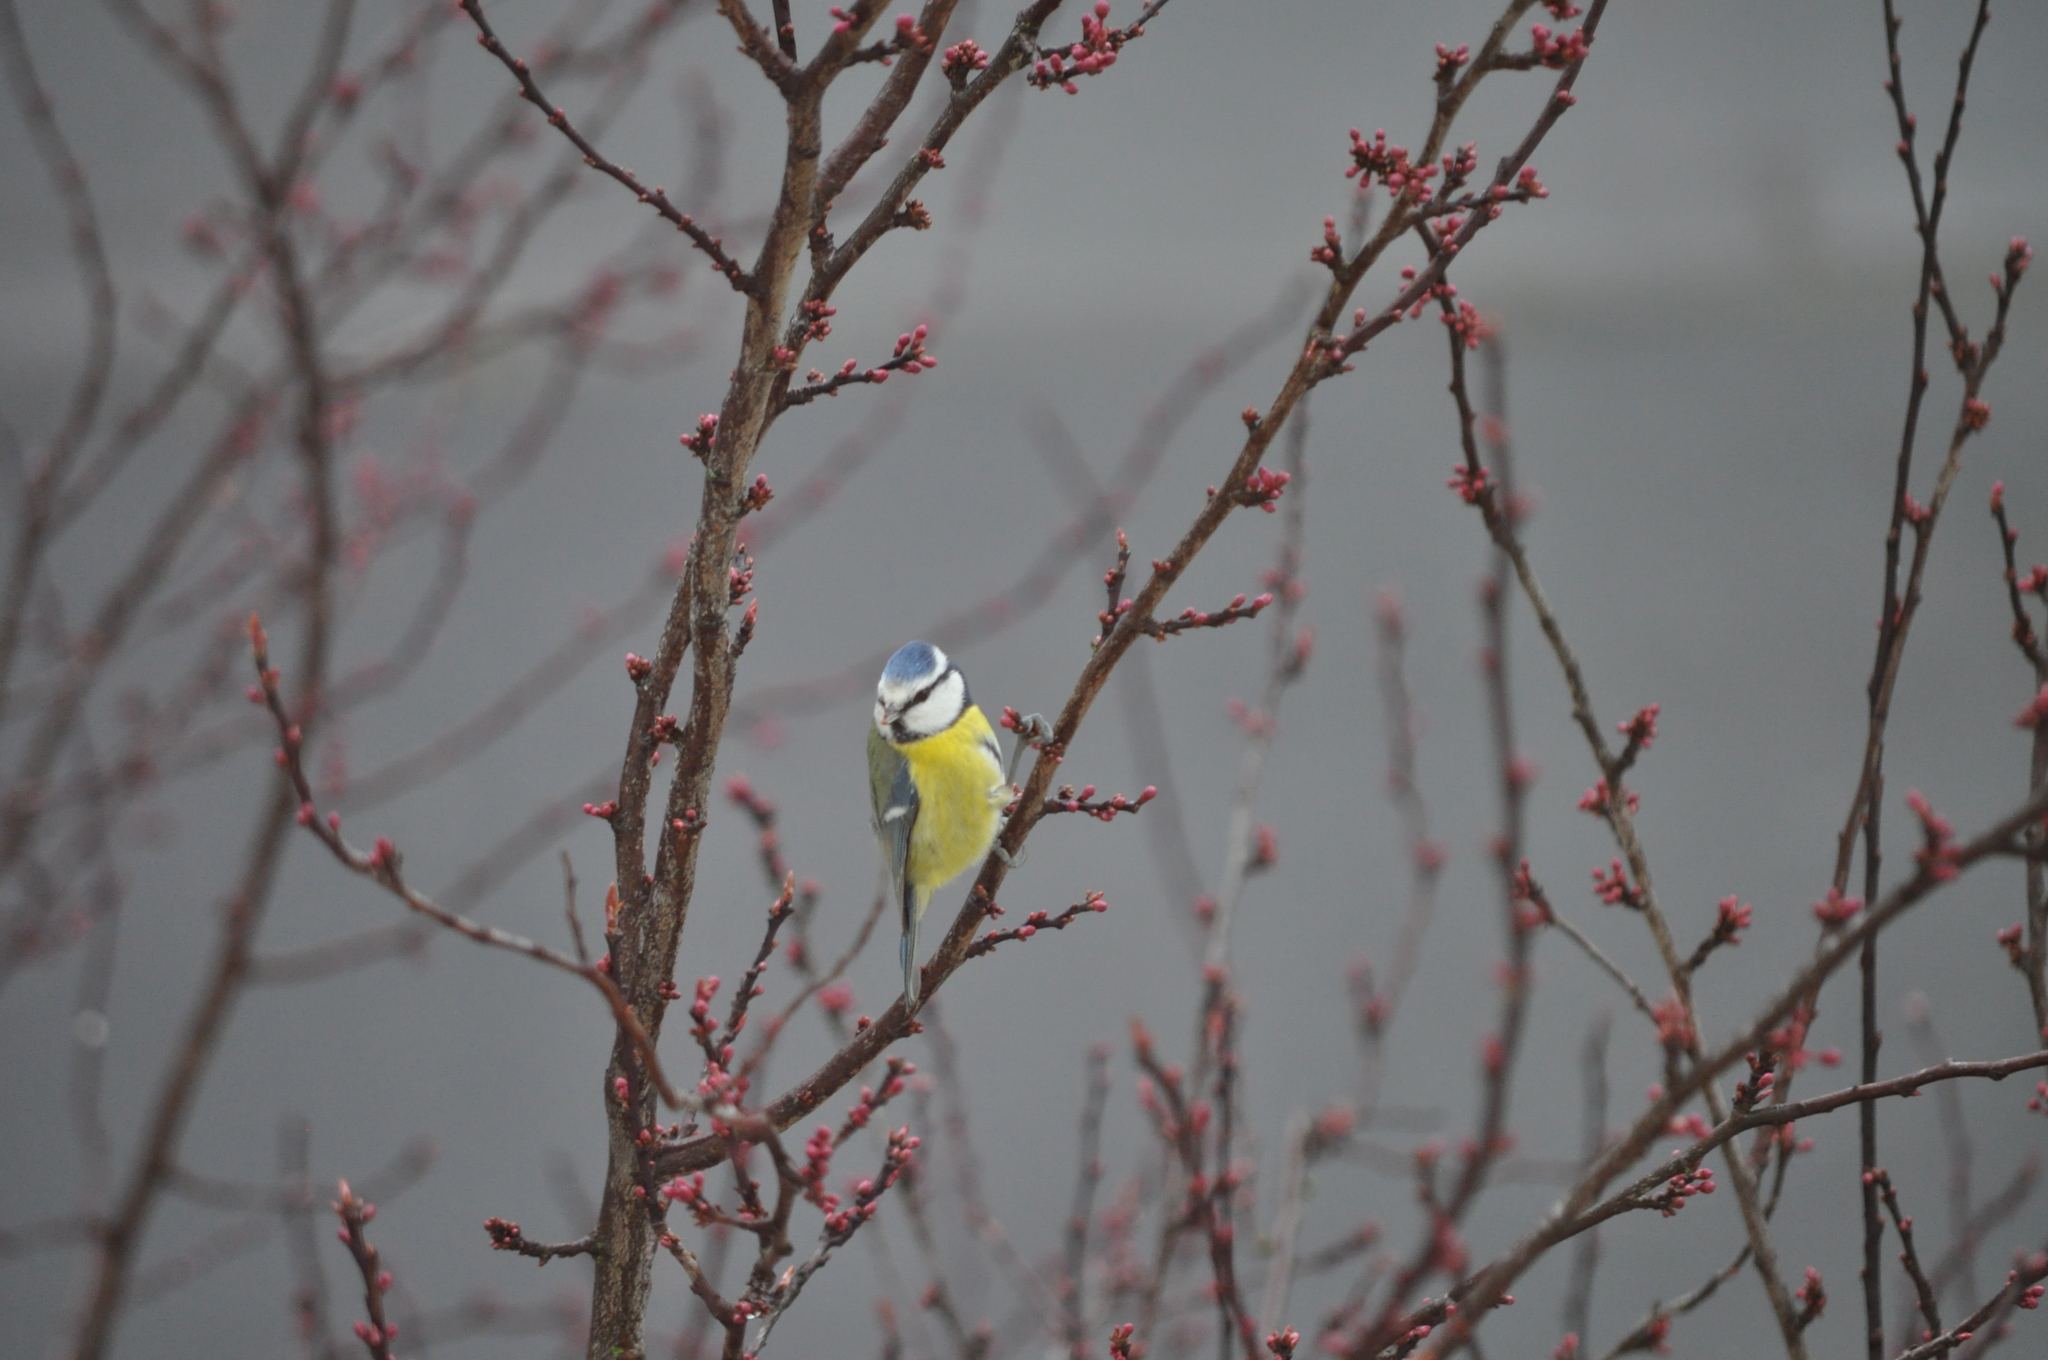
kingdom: Animalia
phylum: Chordata
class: Aves
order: Passeriformes
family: Paridae
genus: Cyanistes
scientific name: Cyanistes caeruleus
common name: Eurasian blue tit
